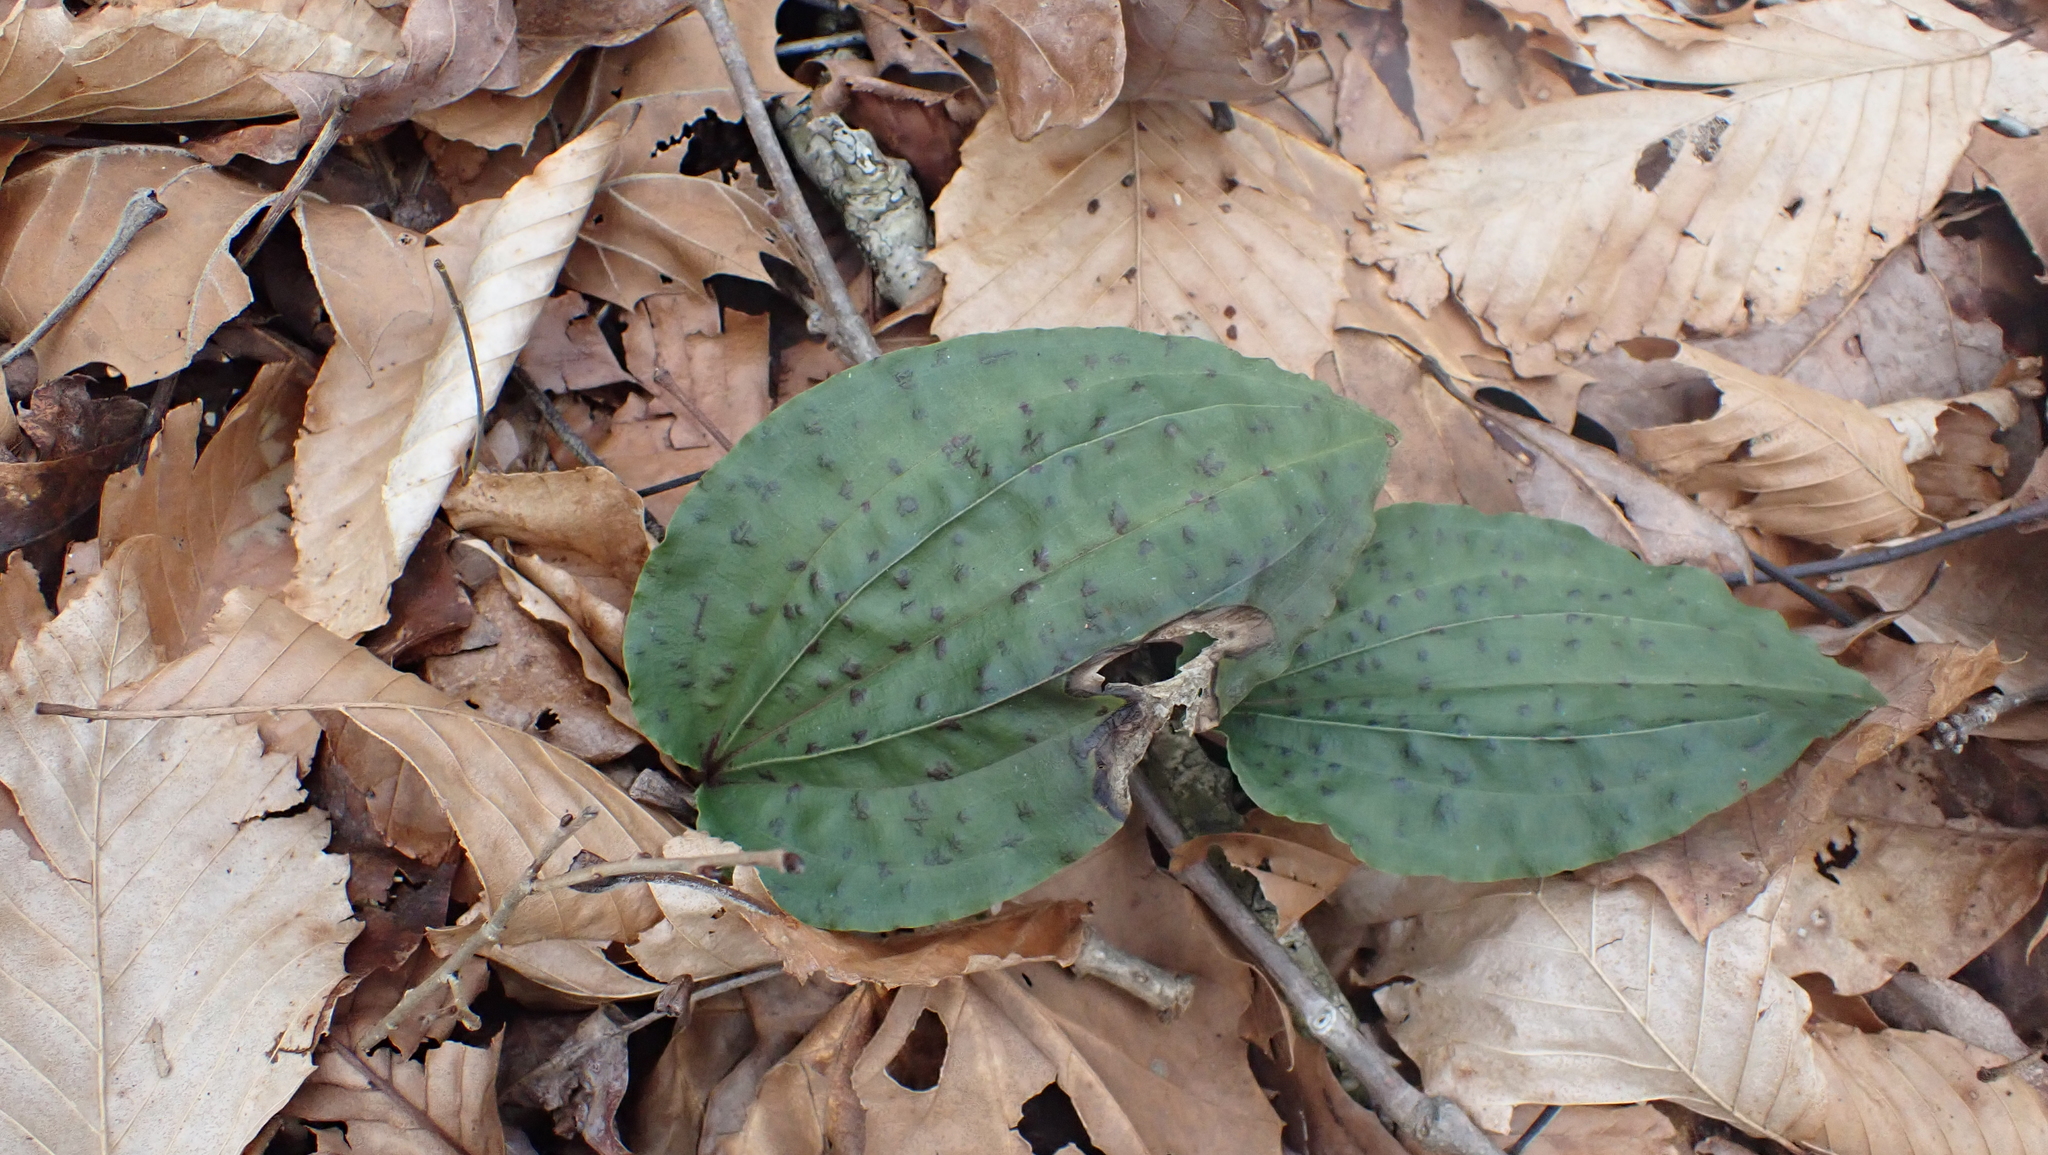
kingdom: Plantae
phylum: Tracheophyta
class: Liliopsida
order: Asparagales
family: Orchidaceae
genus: Tipularia
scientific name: Tipularia discolor
